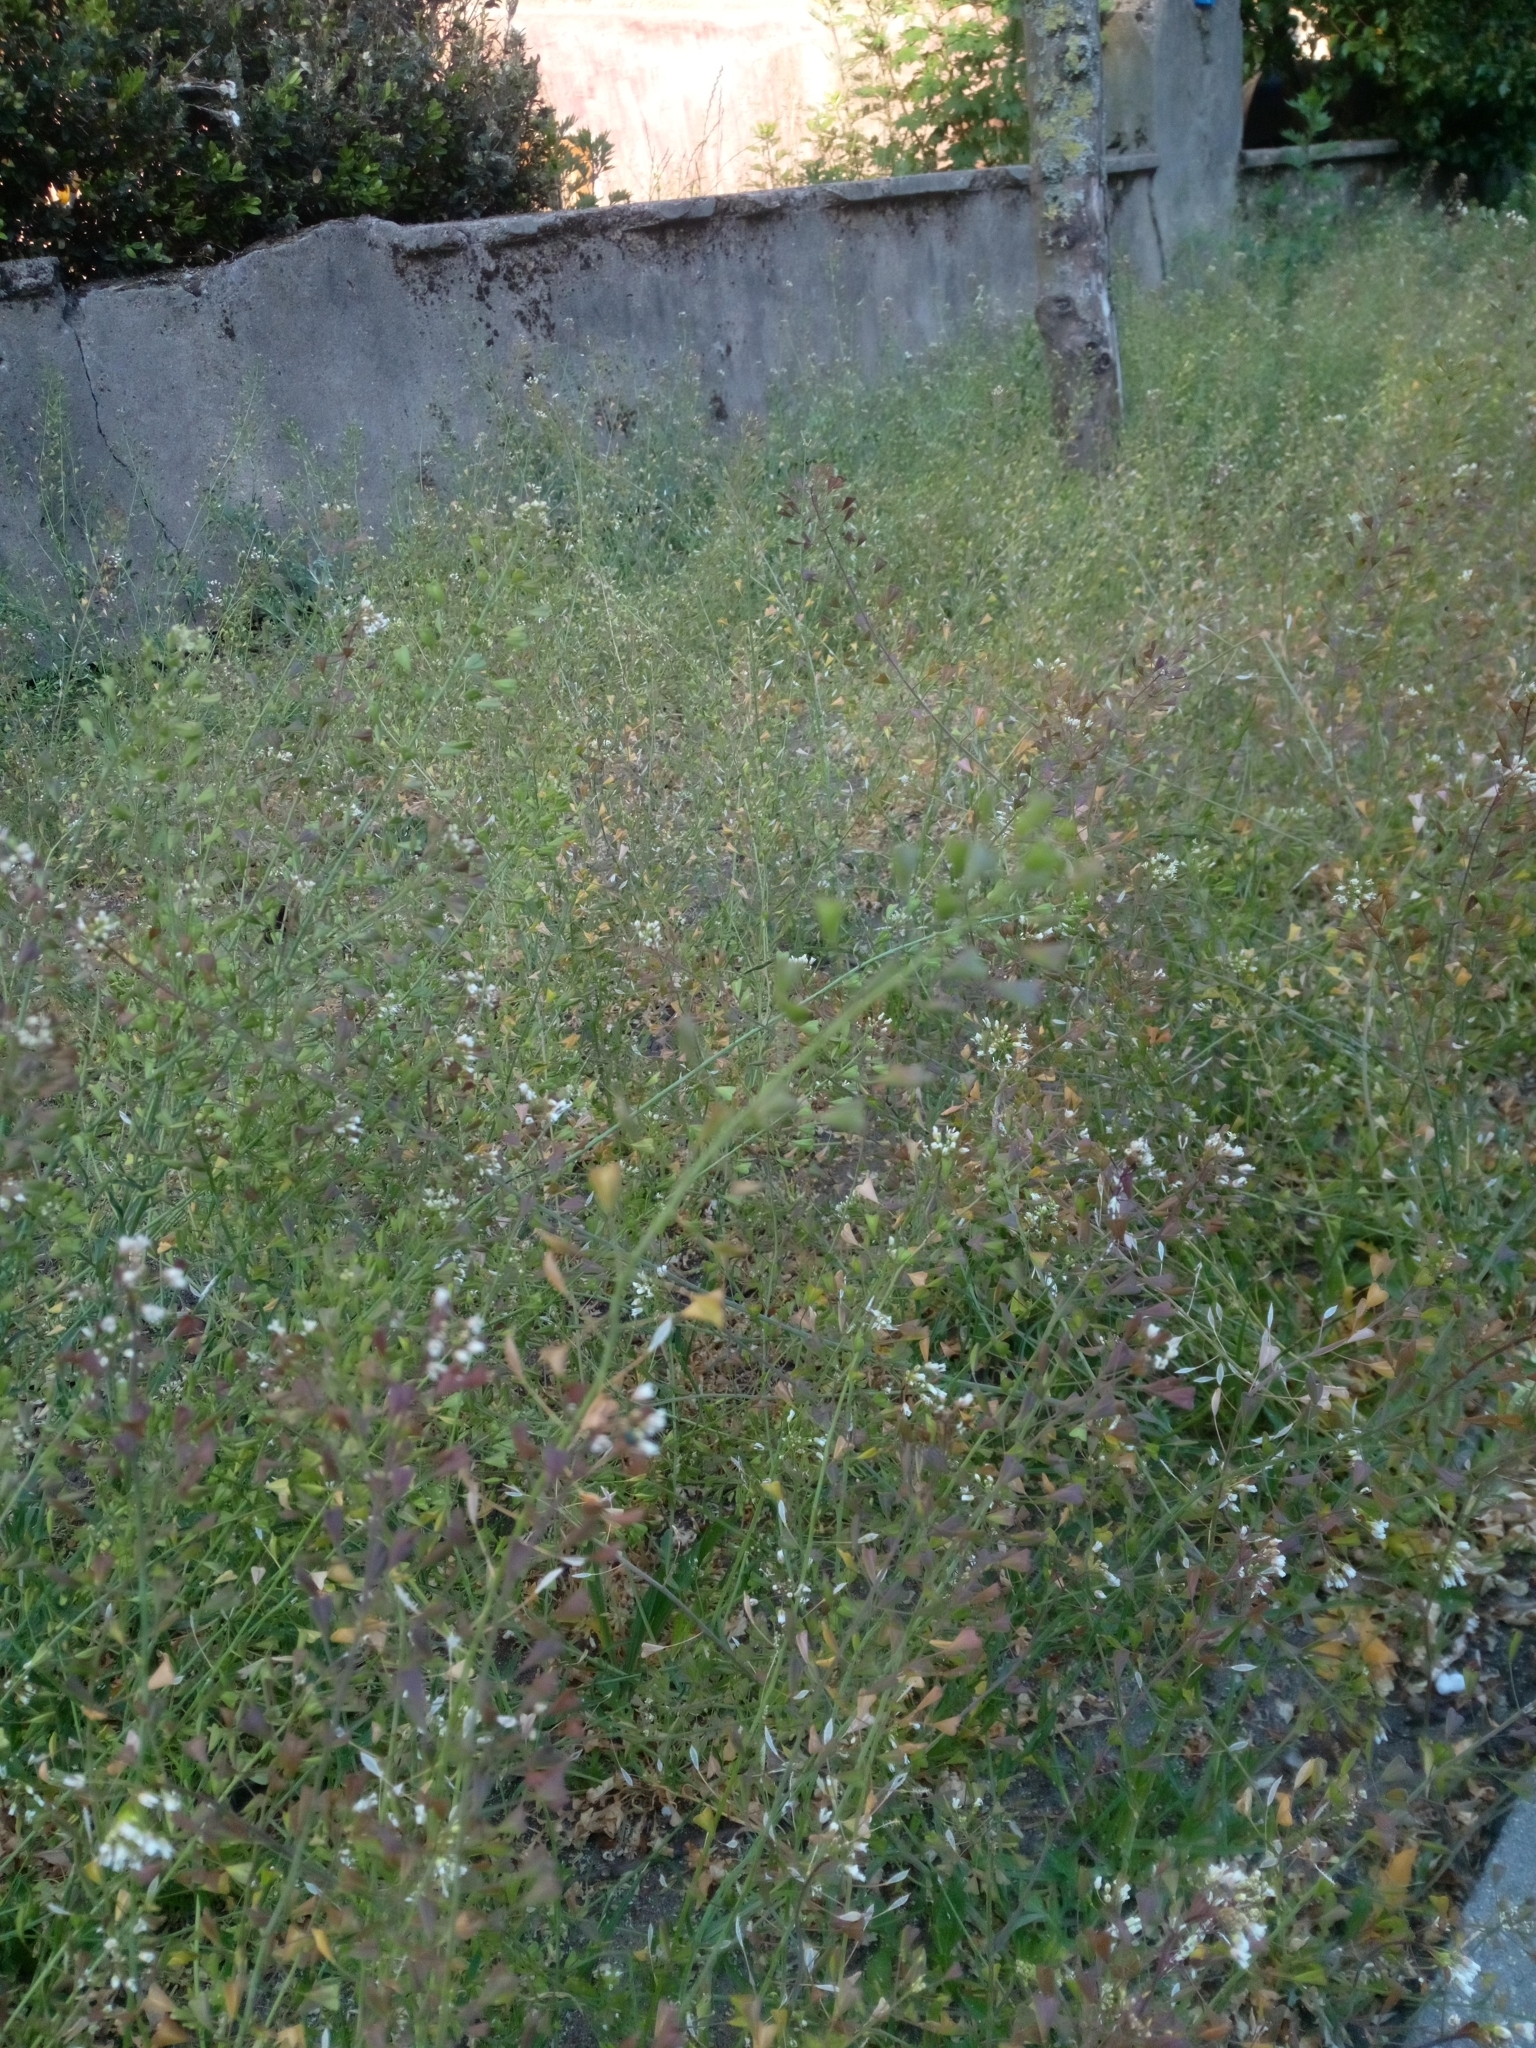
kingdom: Plantae
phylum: Tracheophyta
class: Magnoliopsida
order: Brassicales
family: Brassicaceae
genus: Capsella
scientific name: Capsella bursa-pastoris
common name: Shepherd's purse
